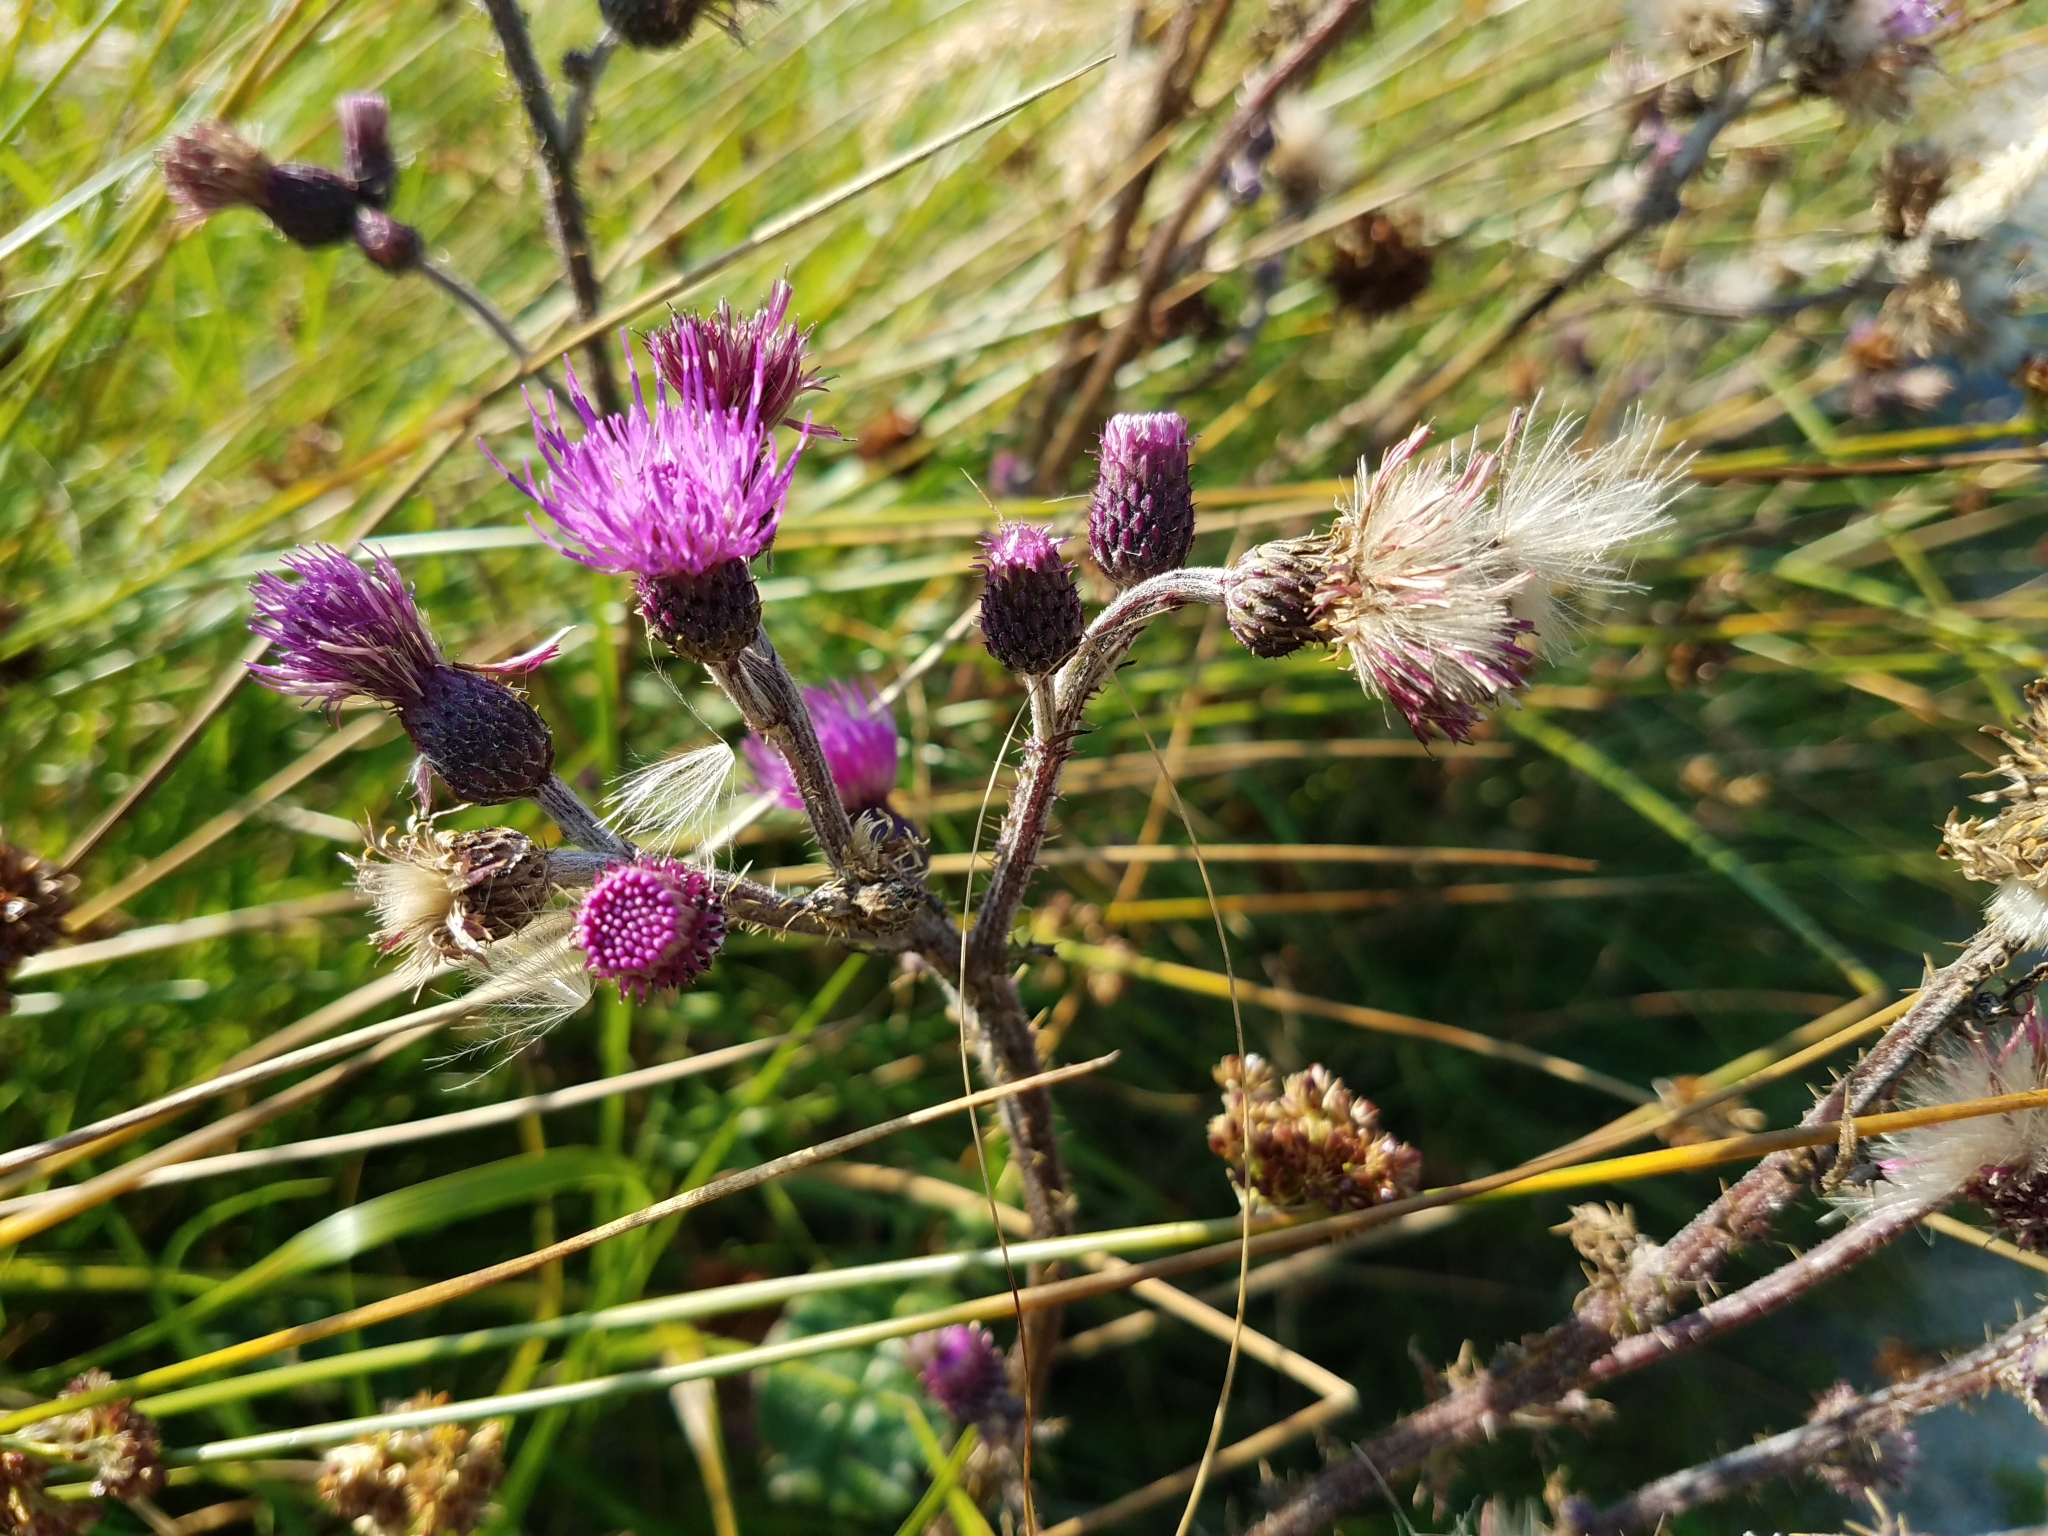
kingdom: Plantae
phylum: Tracheophyta
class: Magnoliopsida
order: Asterales
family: Asteraceae
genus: Cirsium
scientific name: Cirsium palustre
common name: Marsh thistle
